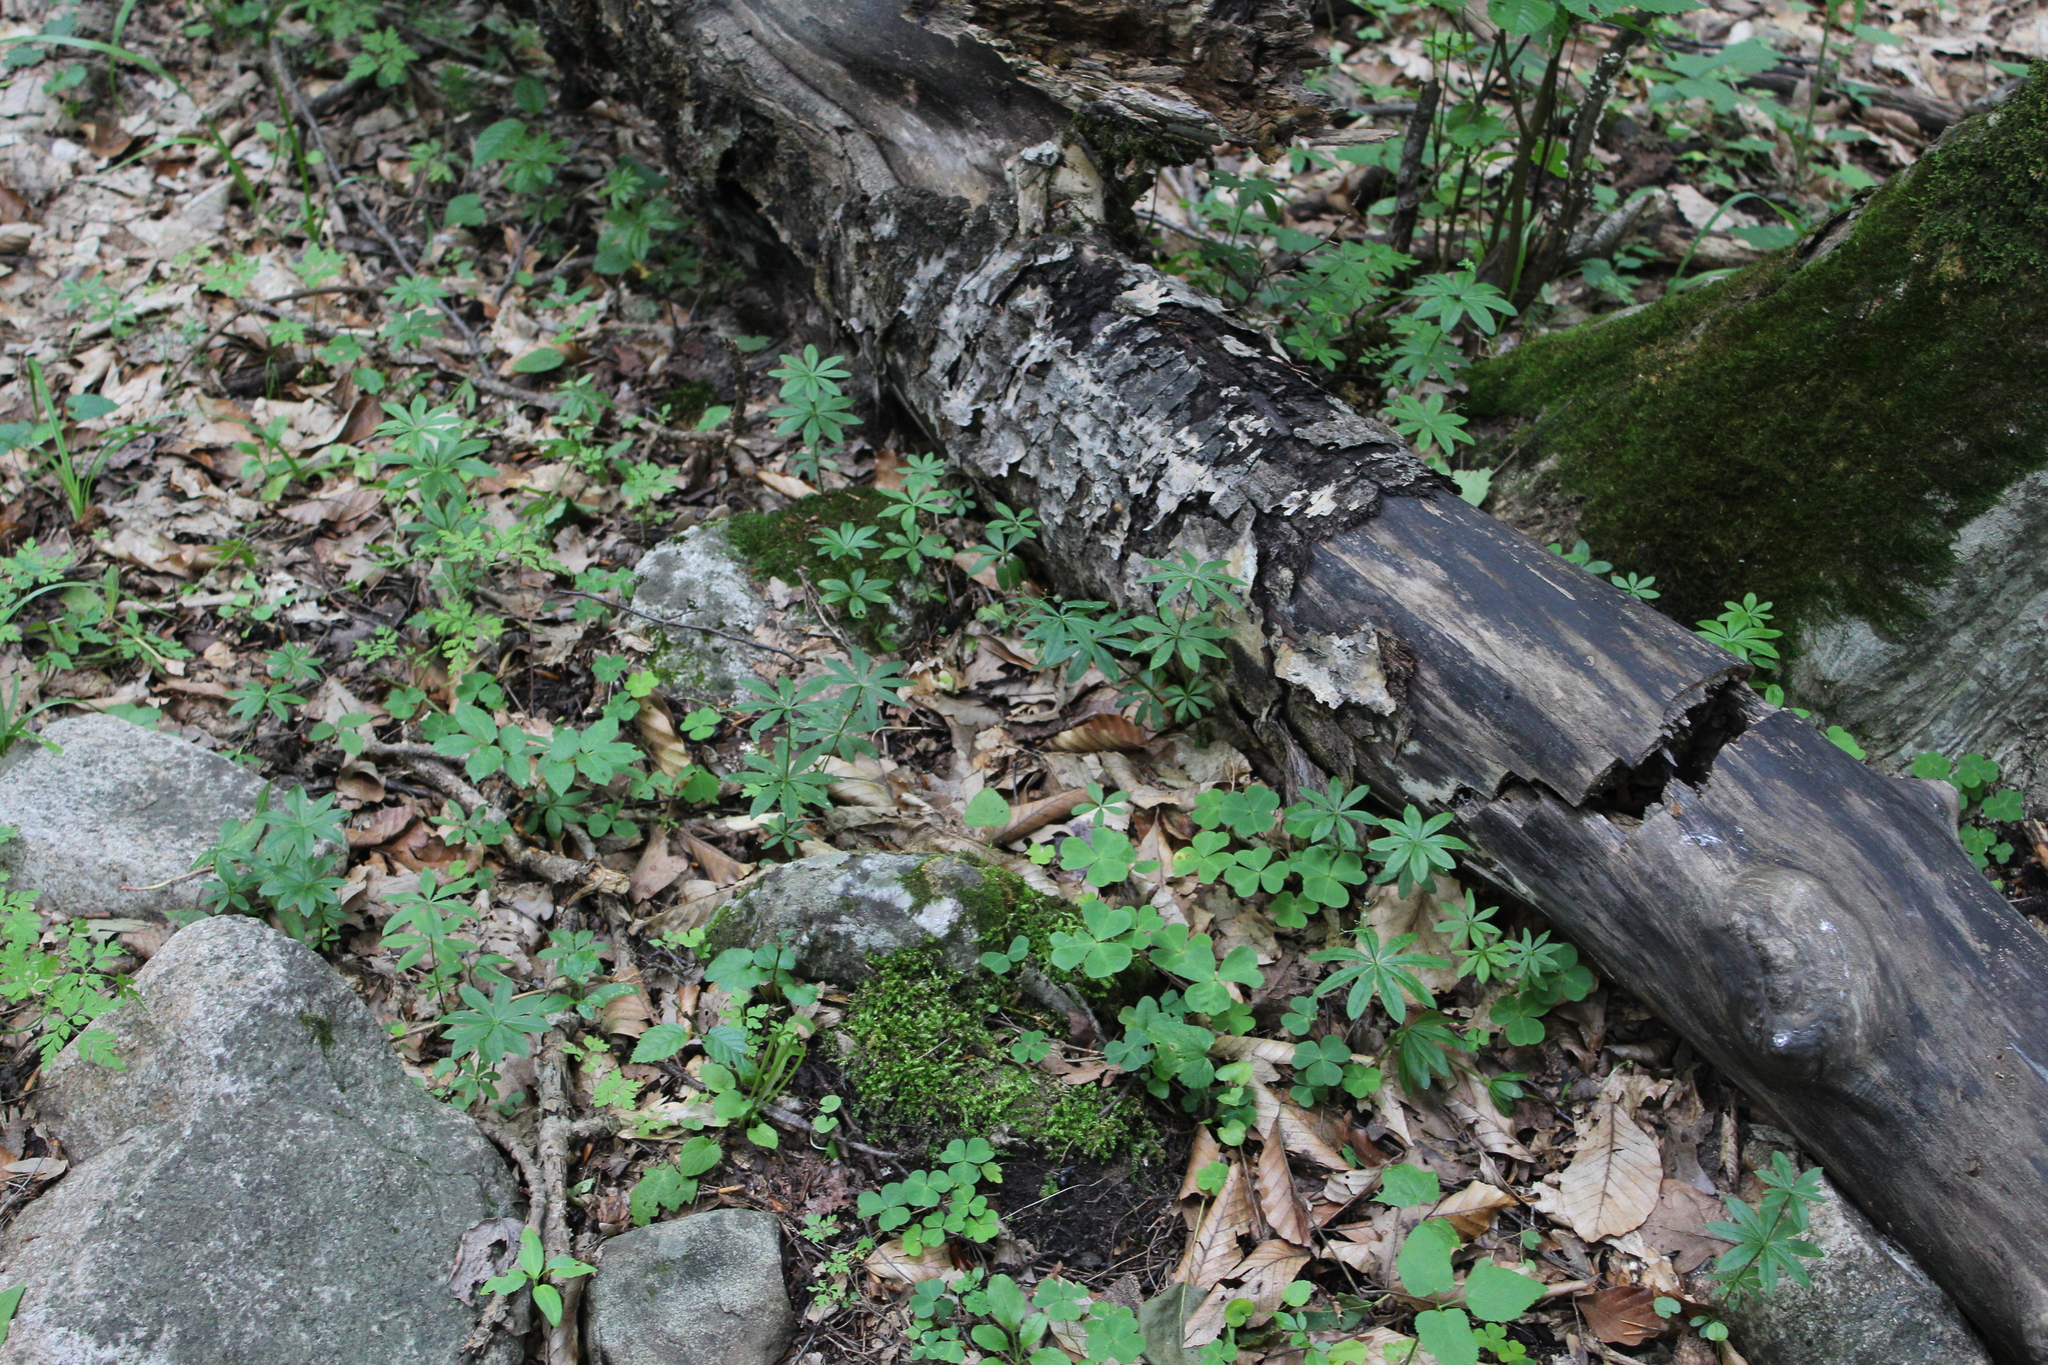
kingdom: Plantae
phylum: Tracheophyta
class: Magnoliopsida
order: Gentianales
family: Rubiaceae
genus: Galium
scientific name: Galium odoratum
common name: Sweet woodruff
